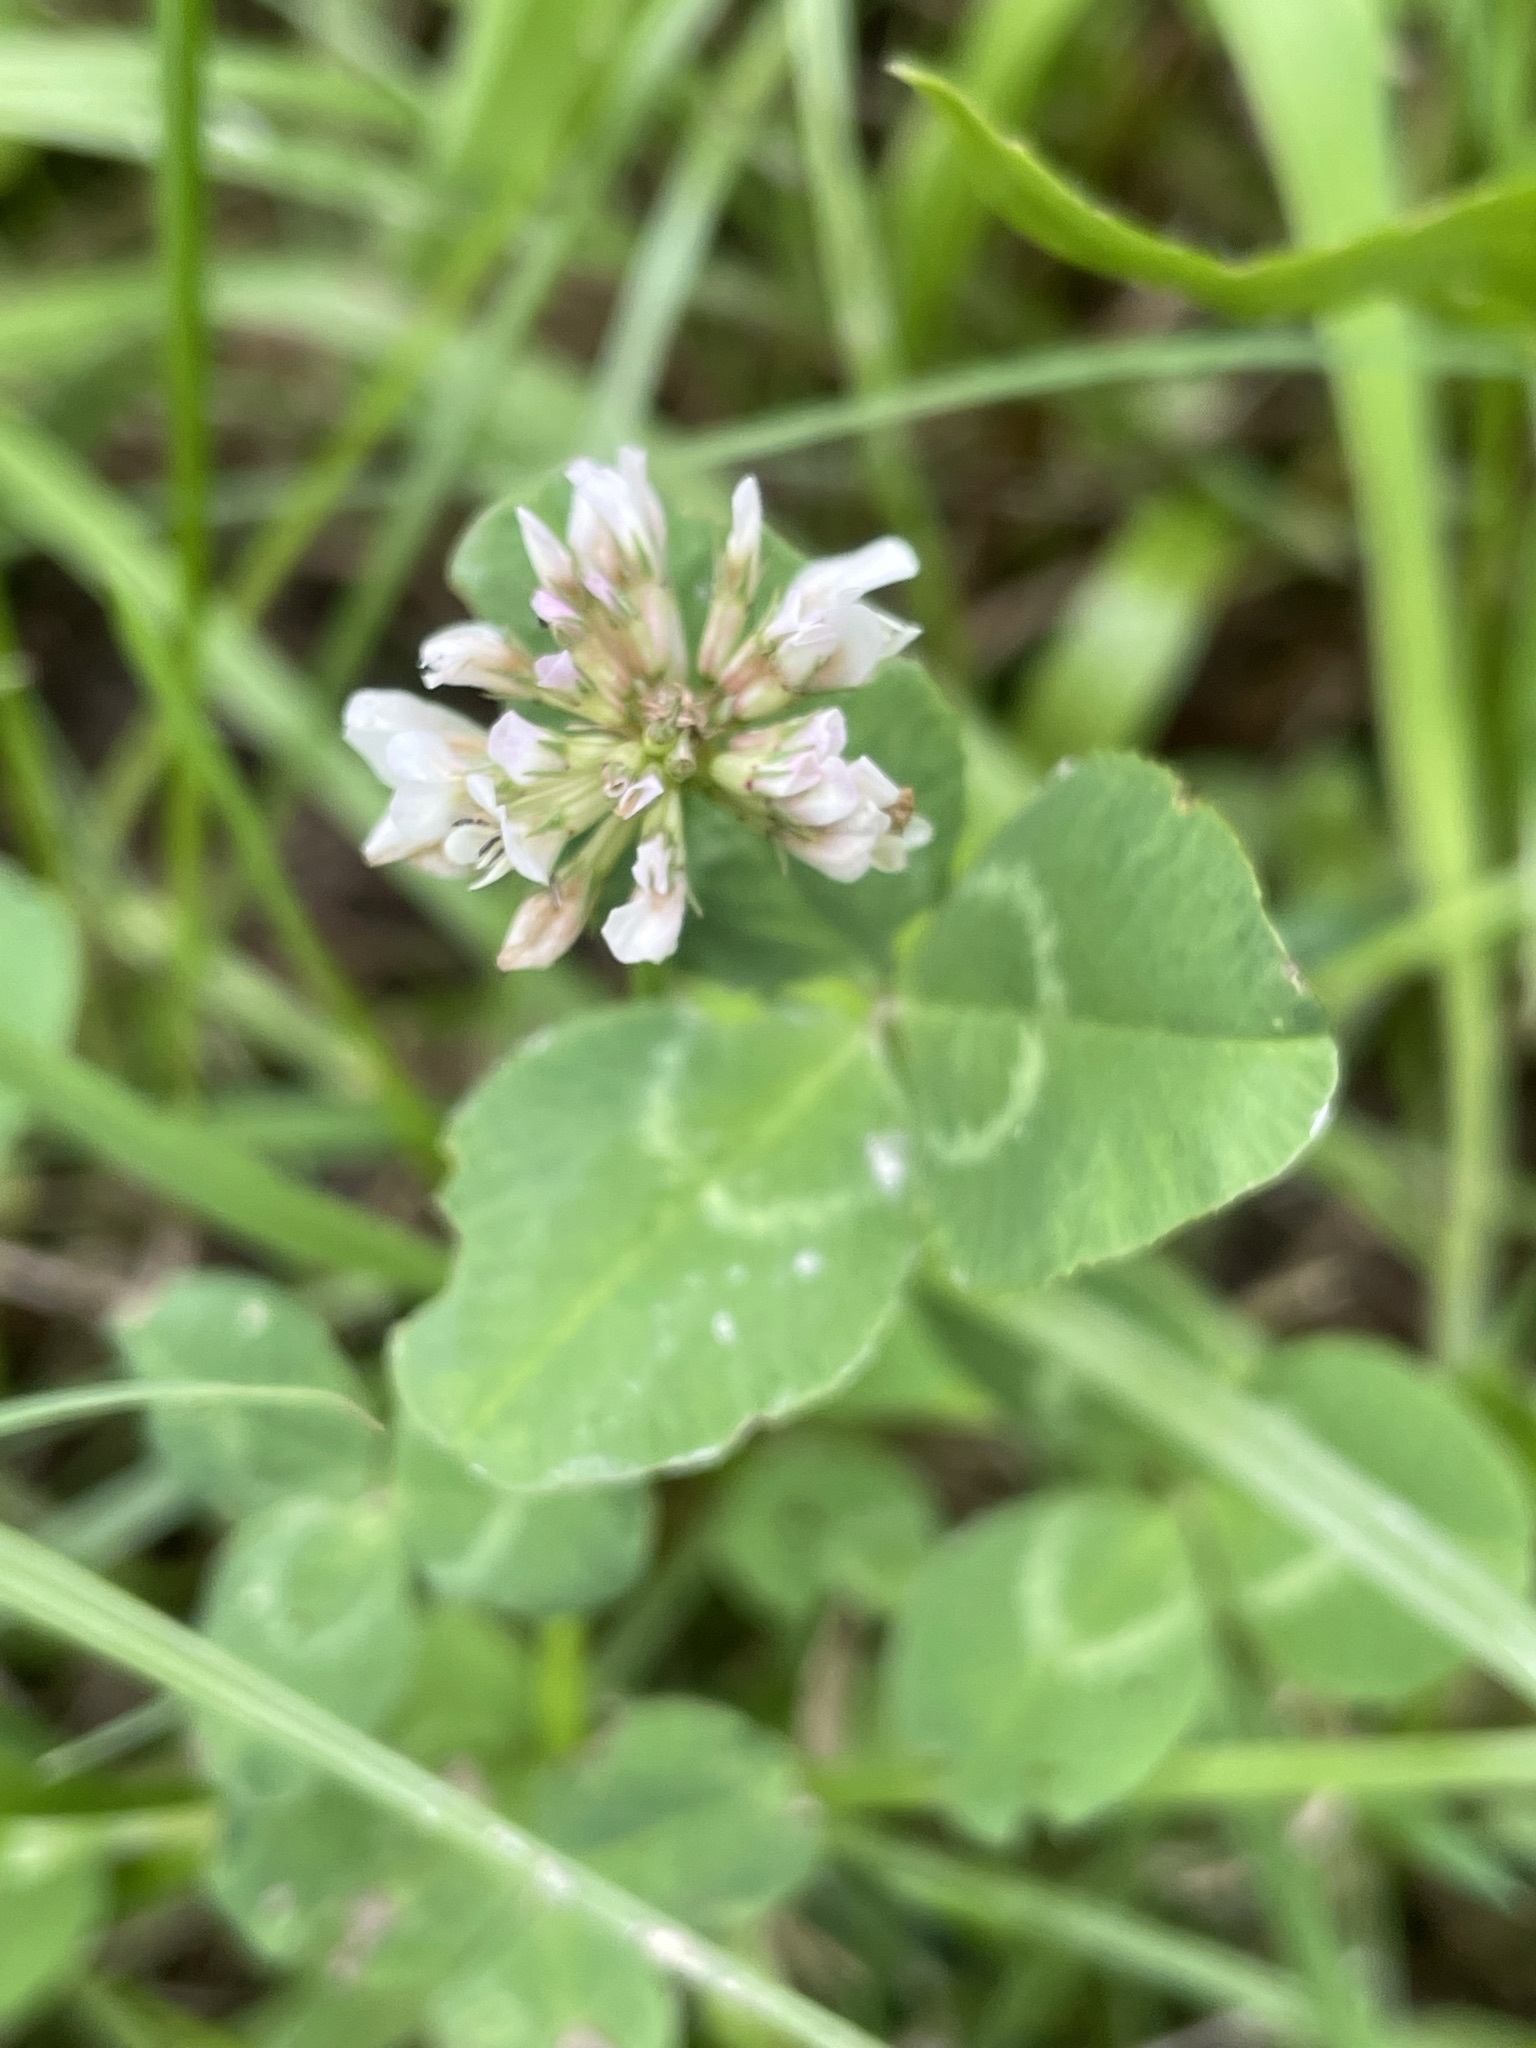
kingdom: Plantae
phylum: Tracheophyta
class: Magnoliopsida
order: Fabales
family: Fabaceae
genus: Trifolium
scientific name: Trifolium repens
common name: White clover
